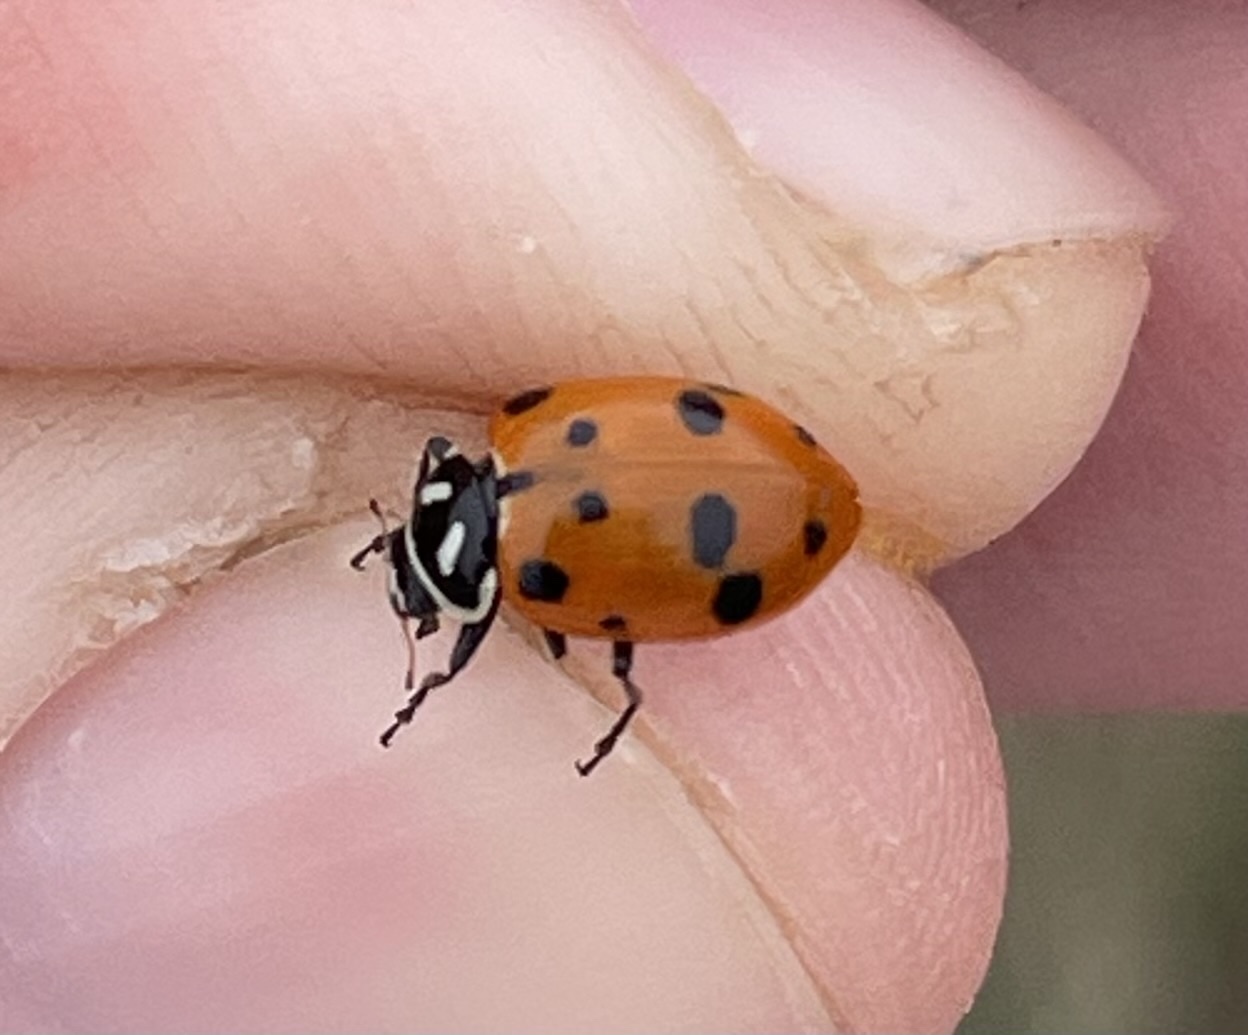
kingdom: Animalia
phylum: Arthropoda
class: Insecta
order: Coleoptera
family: Coccinellidae
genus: Hippodamia
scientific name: Hippodamia convergens
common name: Convergent lady beetle
